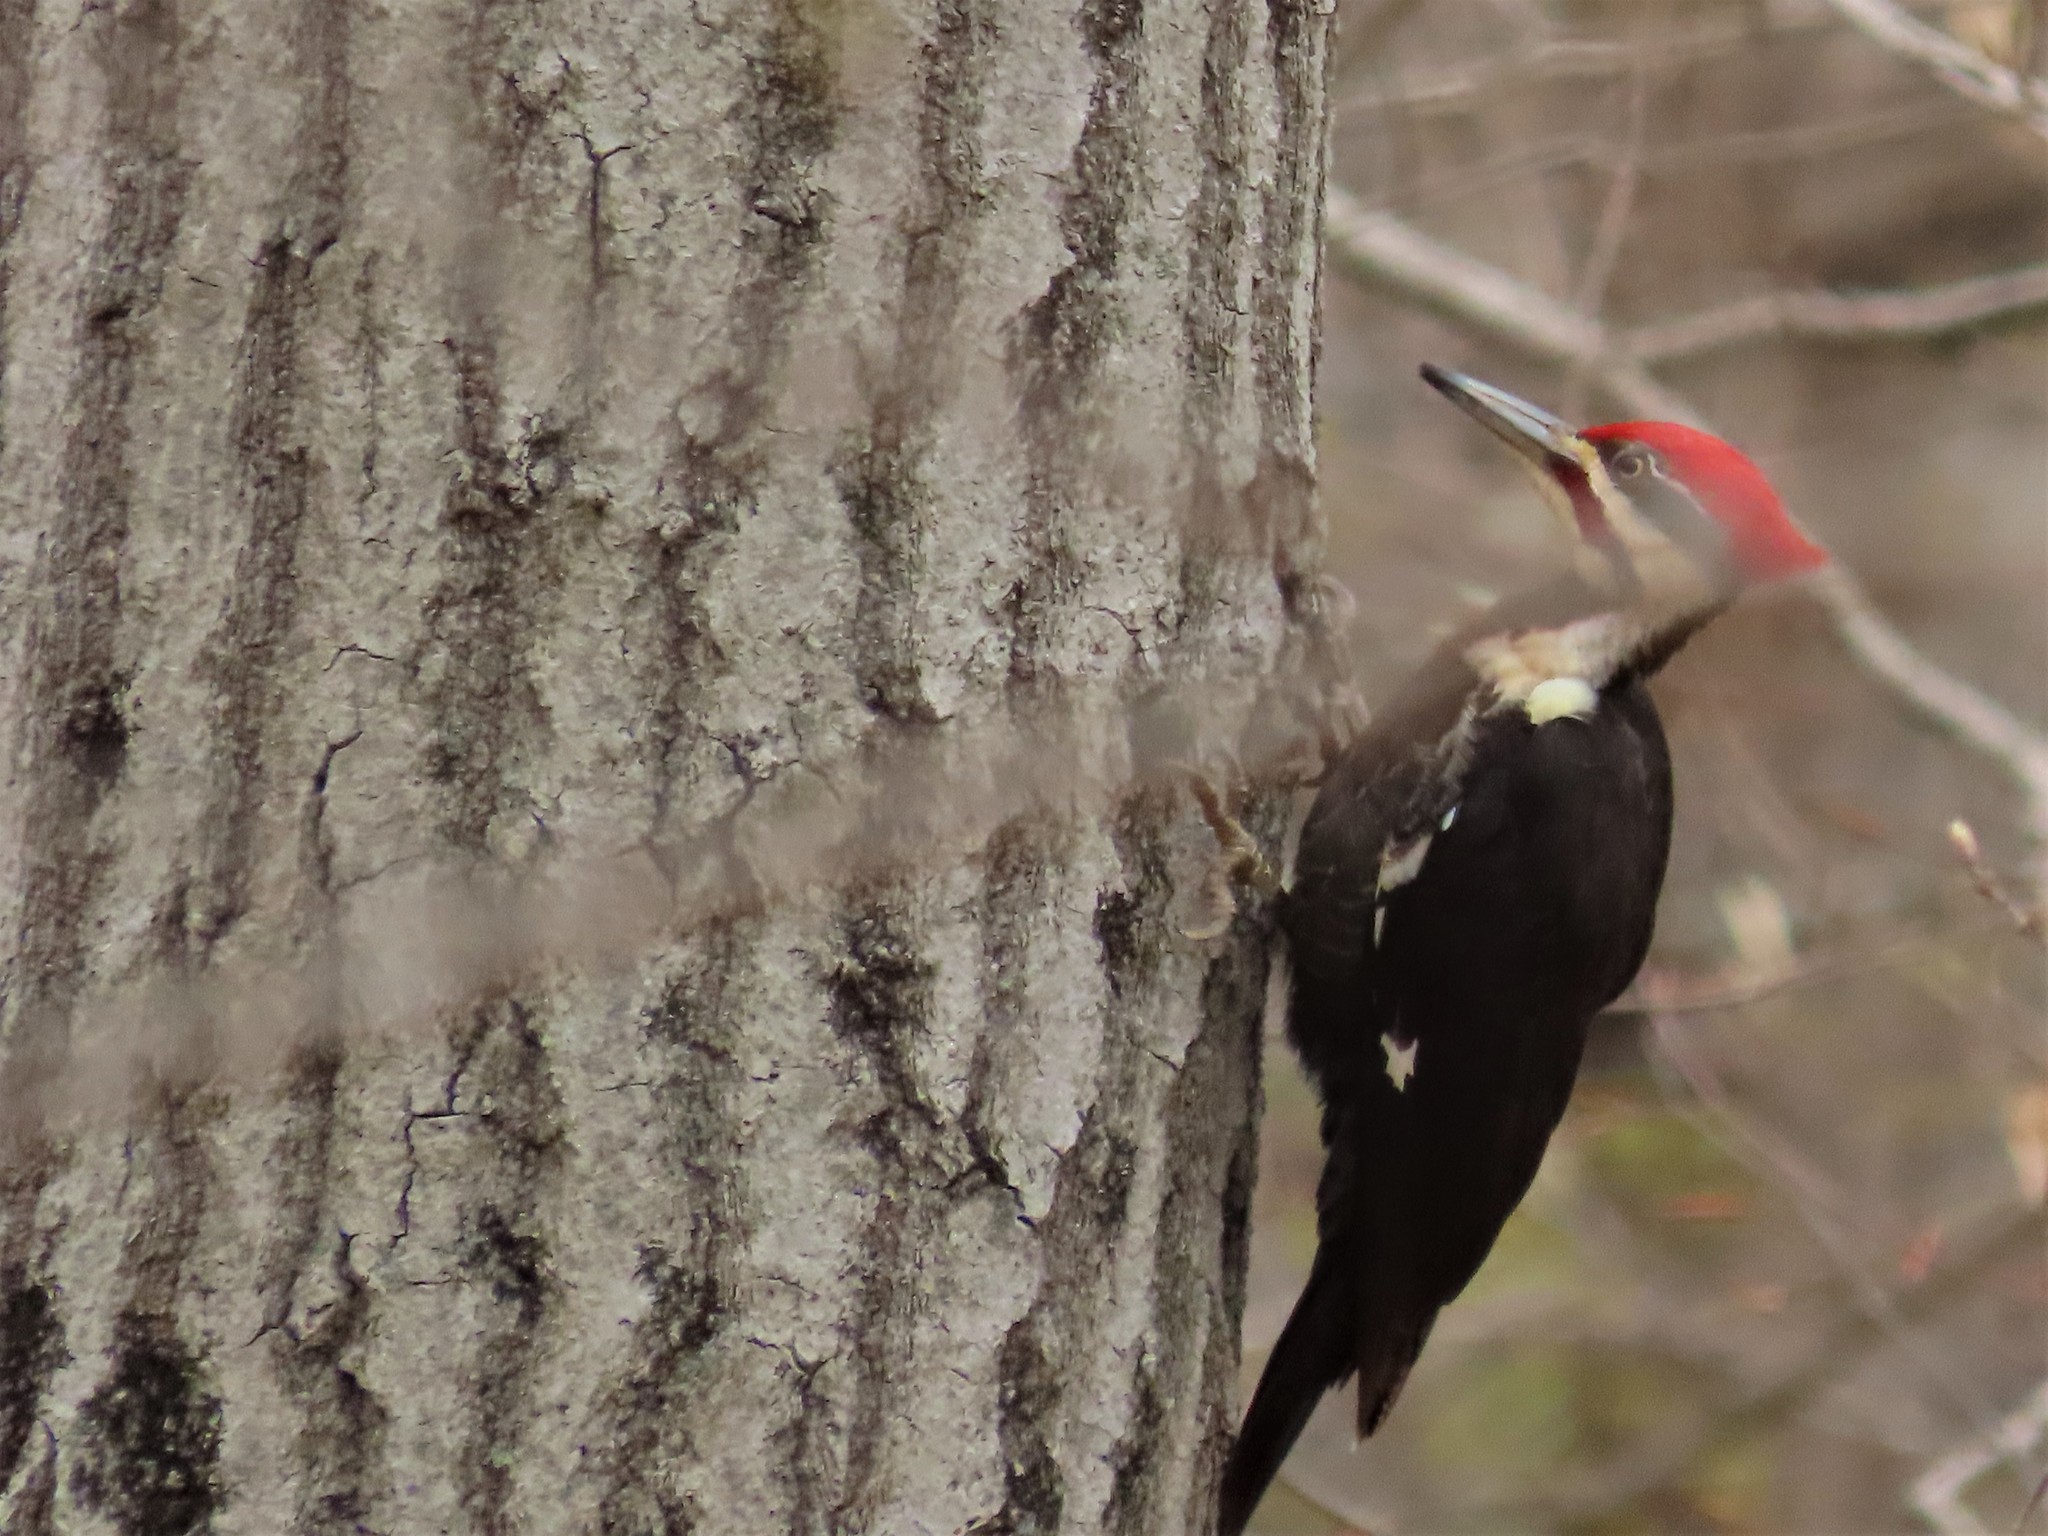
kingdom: Animalia
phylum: Chordata
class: Aves
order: Piciformes
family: Picidae
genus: Dryocopus
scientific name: Dryocopus pileatus
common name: Pileated woodpecker
